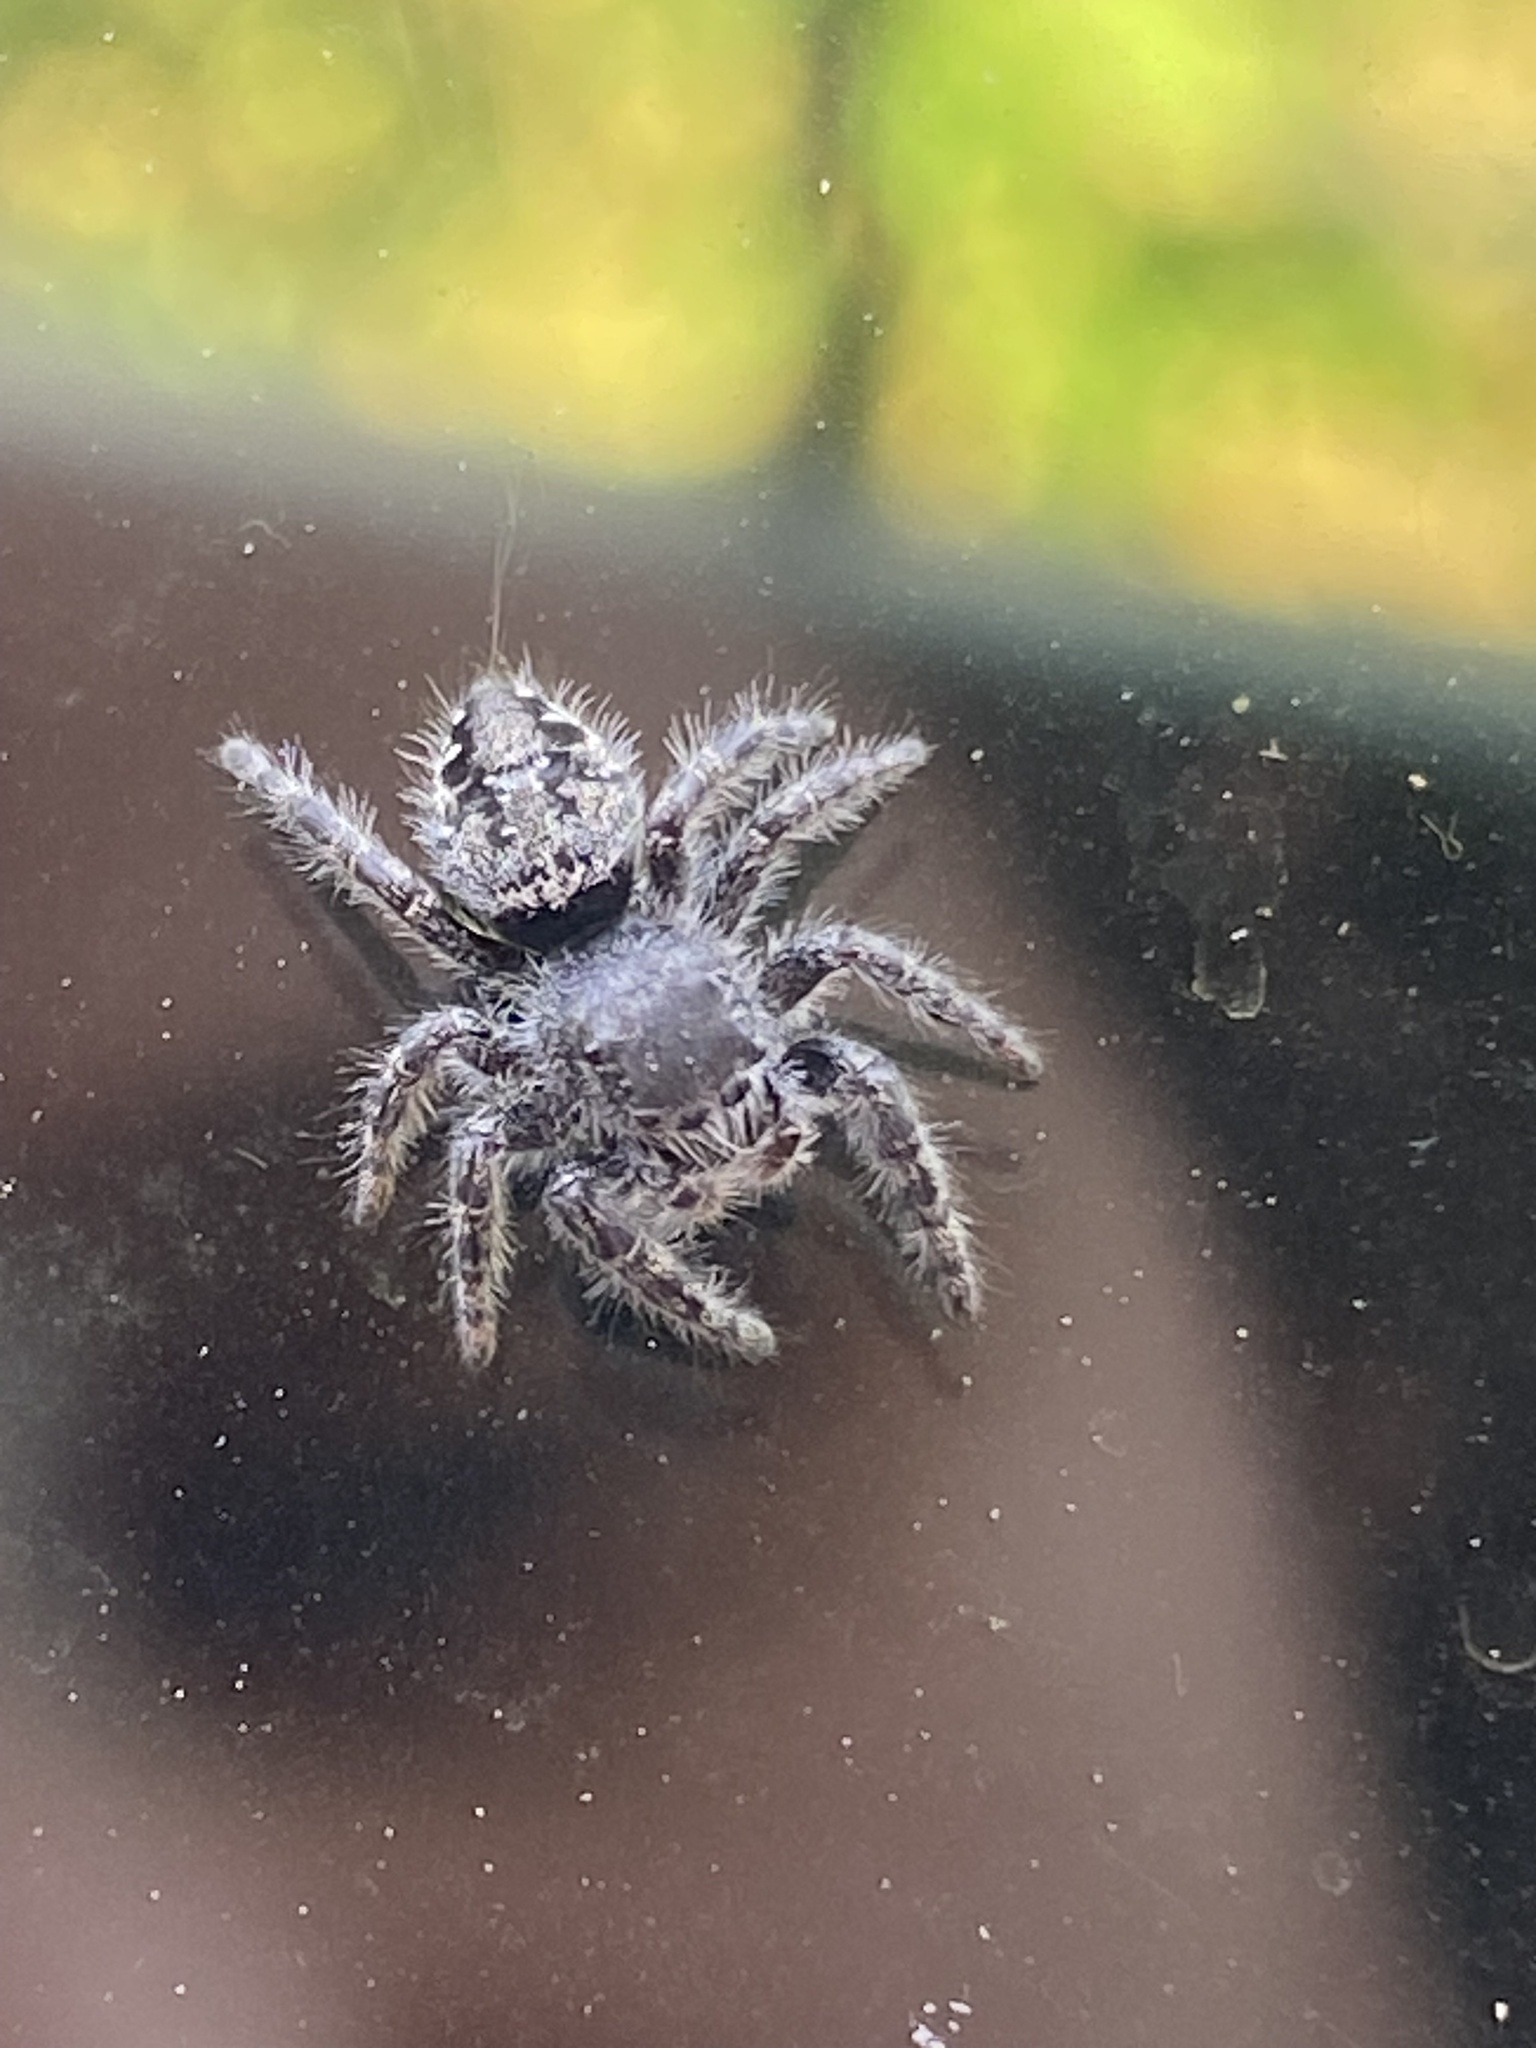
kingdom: Animalia
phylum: Arthropoda
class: Arachnida
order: Araneae
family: Salticidae
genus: Phidippus
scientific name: Phidippus borealis
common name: Boreal tufted jumping spider
